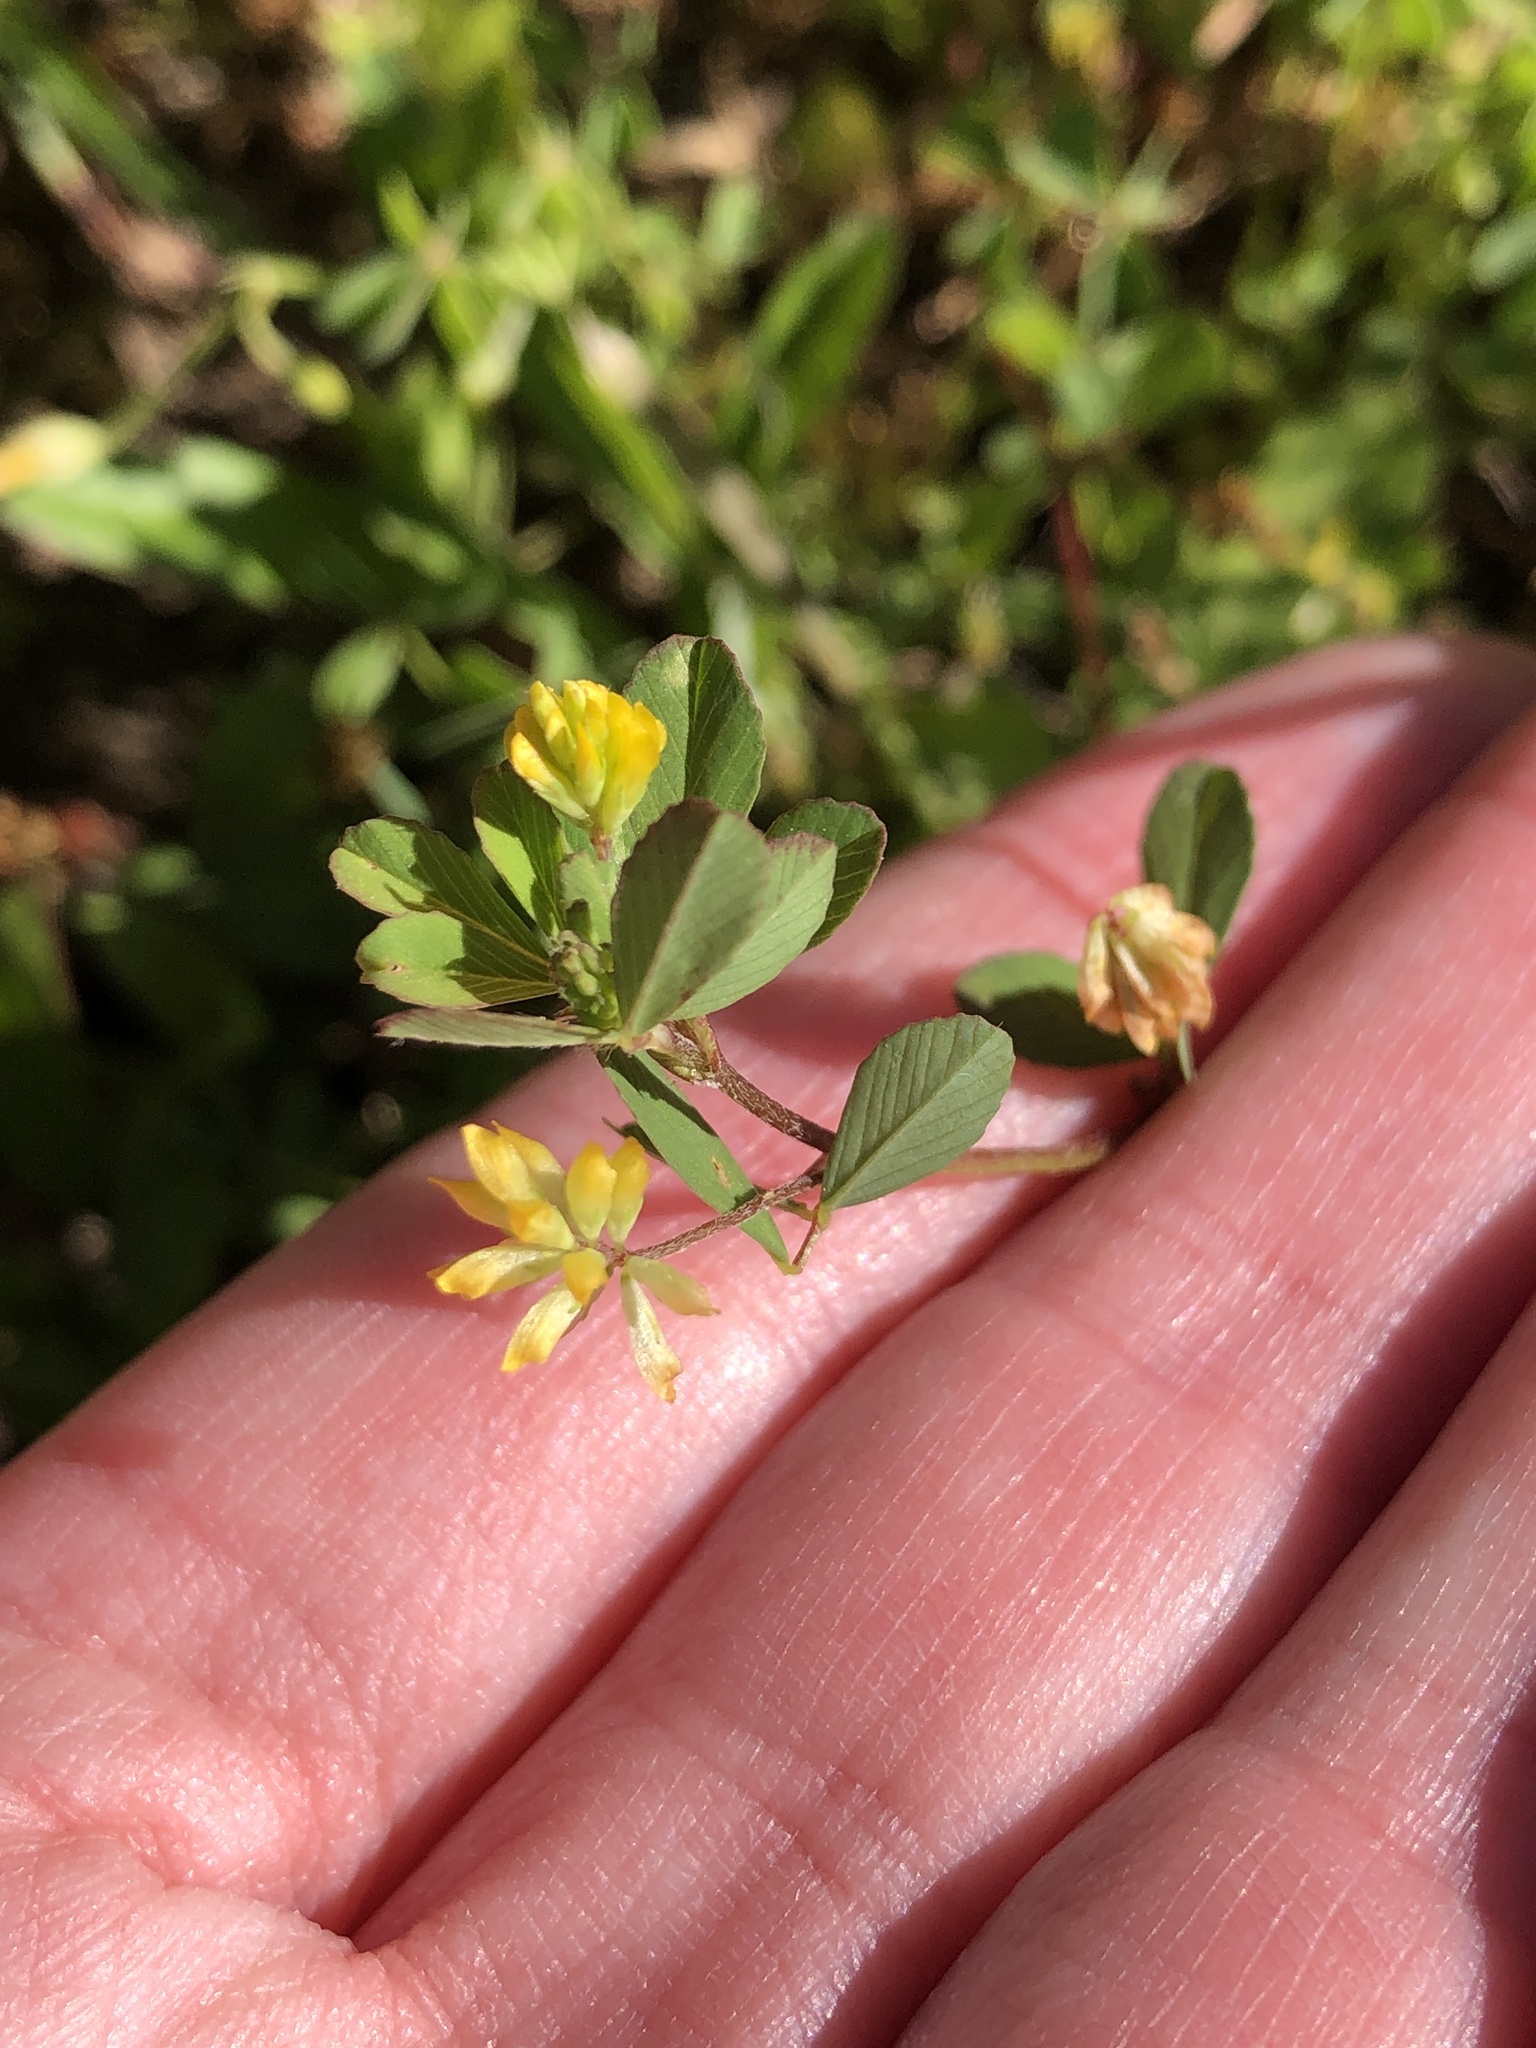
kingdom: Plantae
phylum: Tracheophyta
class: Magnoliopsida
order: Fabales
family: Fabaceae
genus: Trifolium
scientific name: Trifolium dubium
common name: Suckling clover
